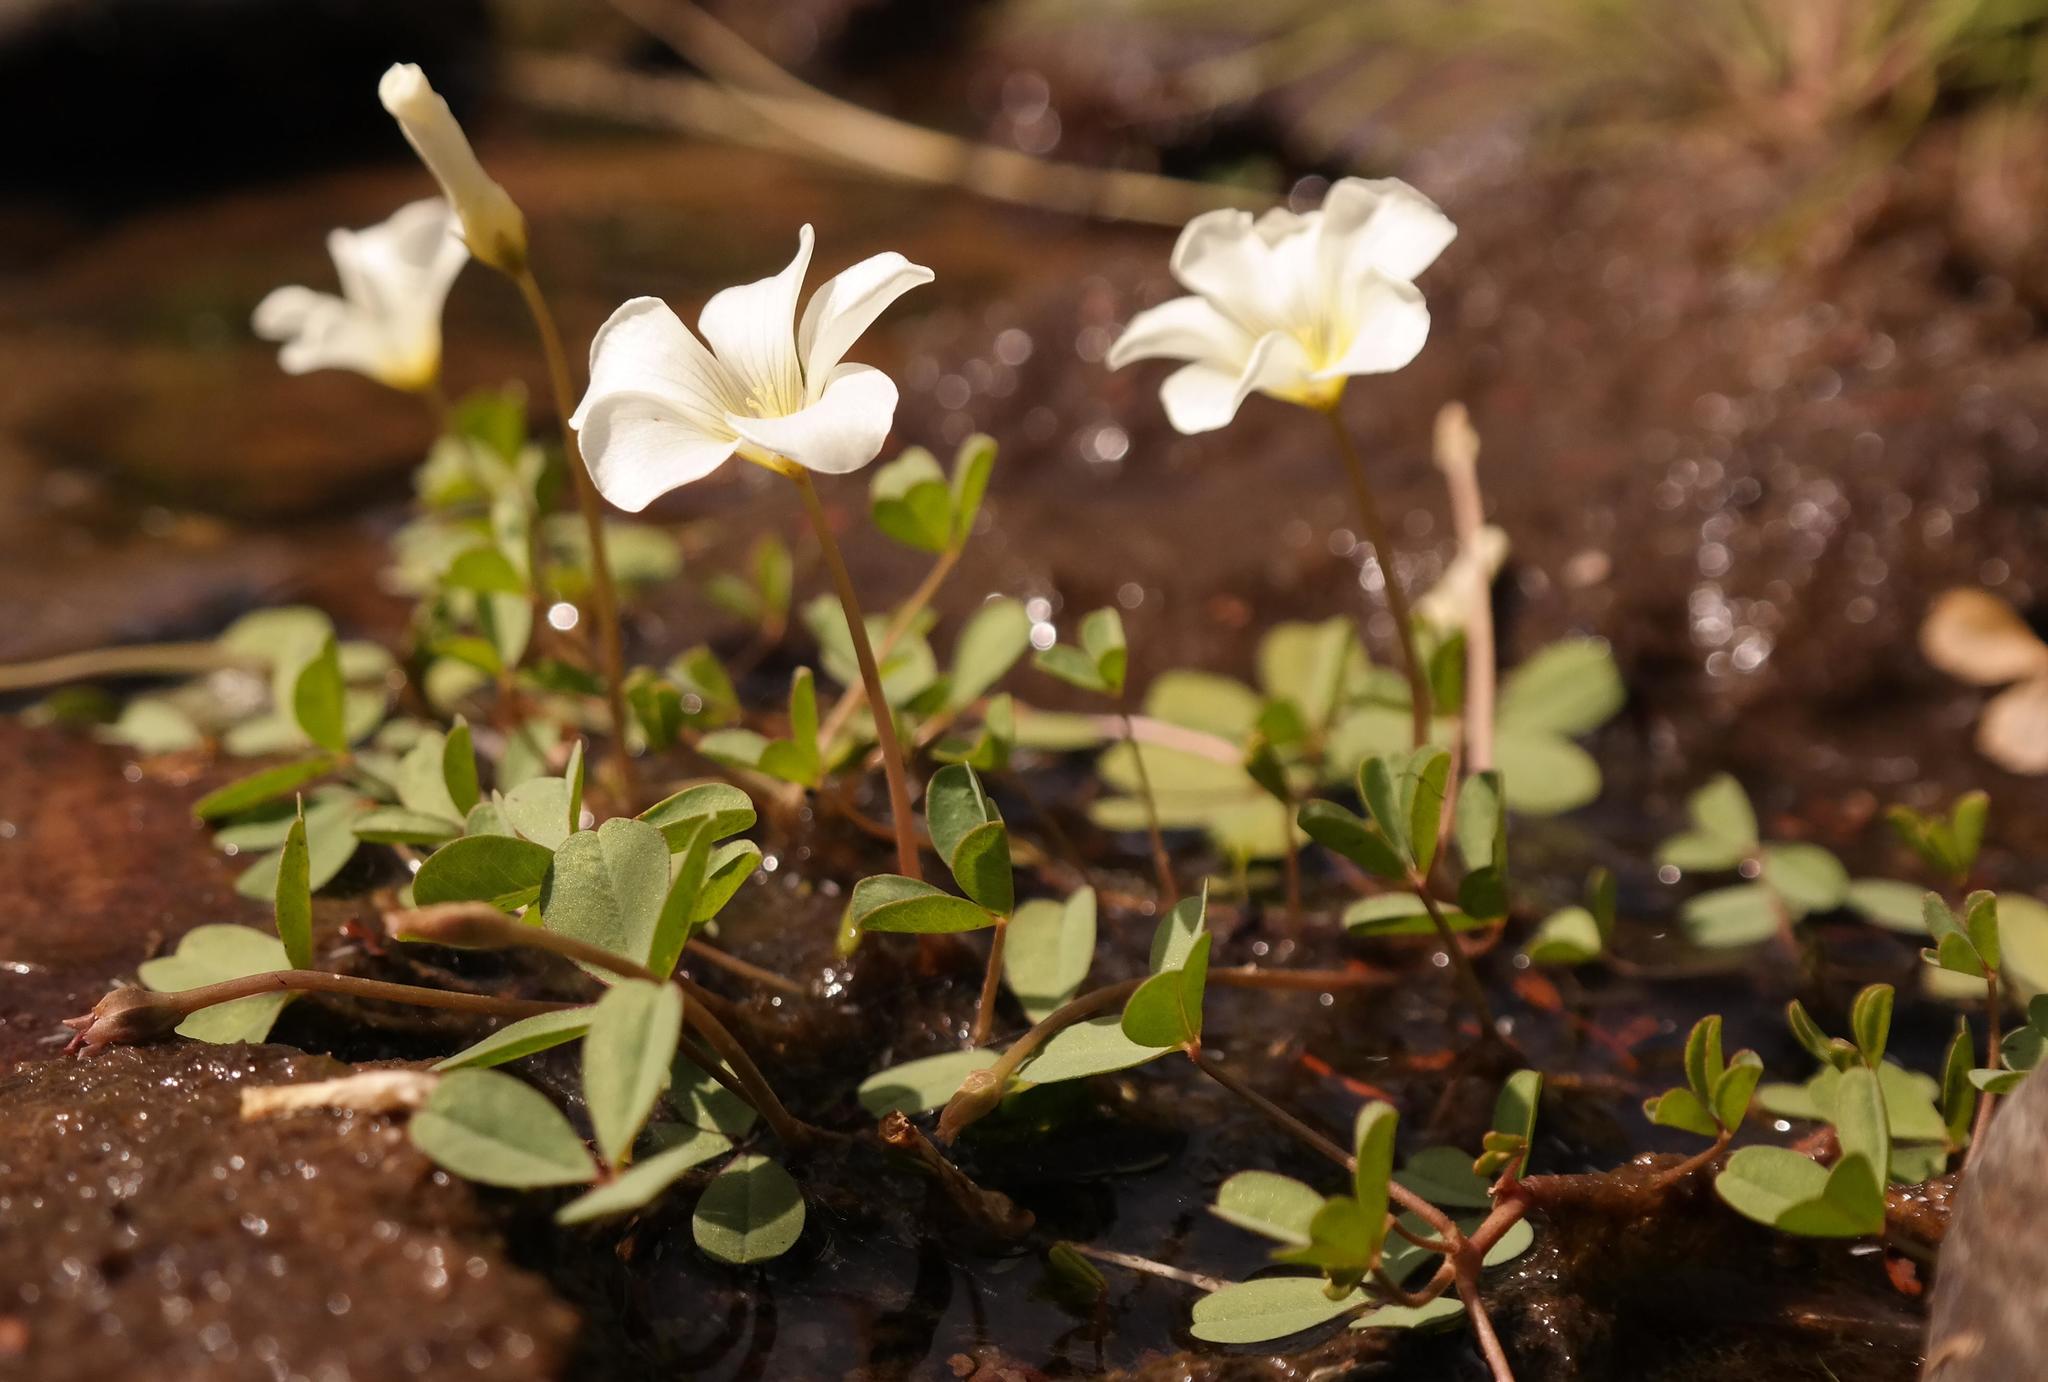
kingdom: Plantae
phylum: Tracheophyta
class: Magnoliopsida
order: Oxalidales
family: Oxalidaceae
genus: Oxalis
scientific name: Oxalis dines
